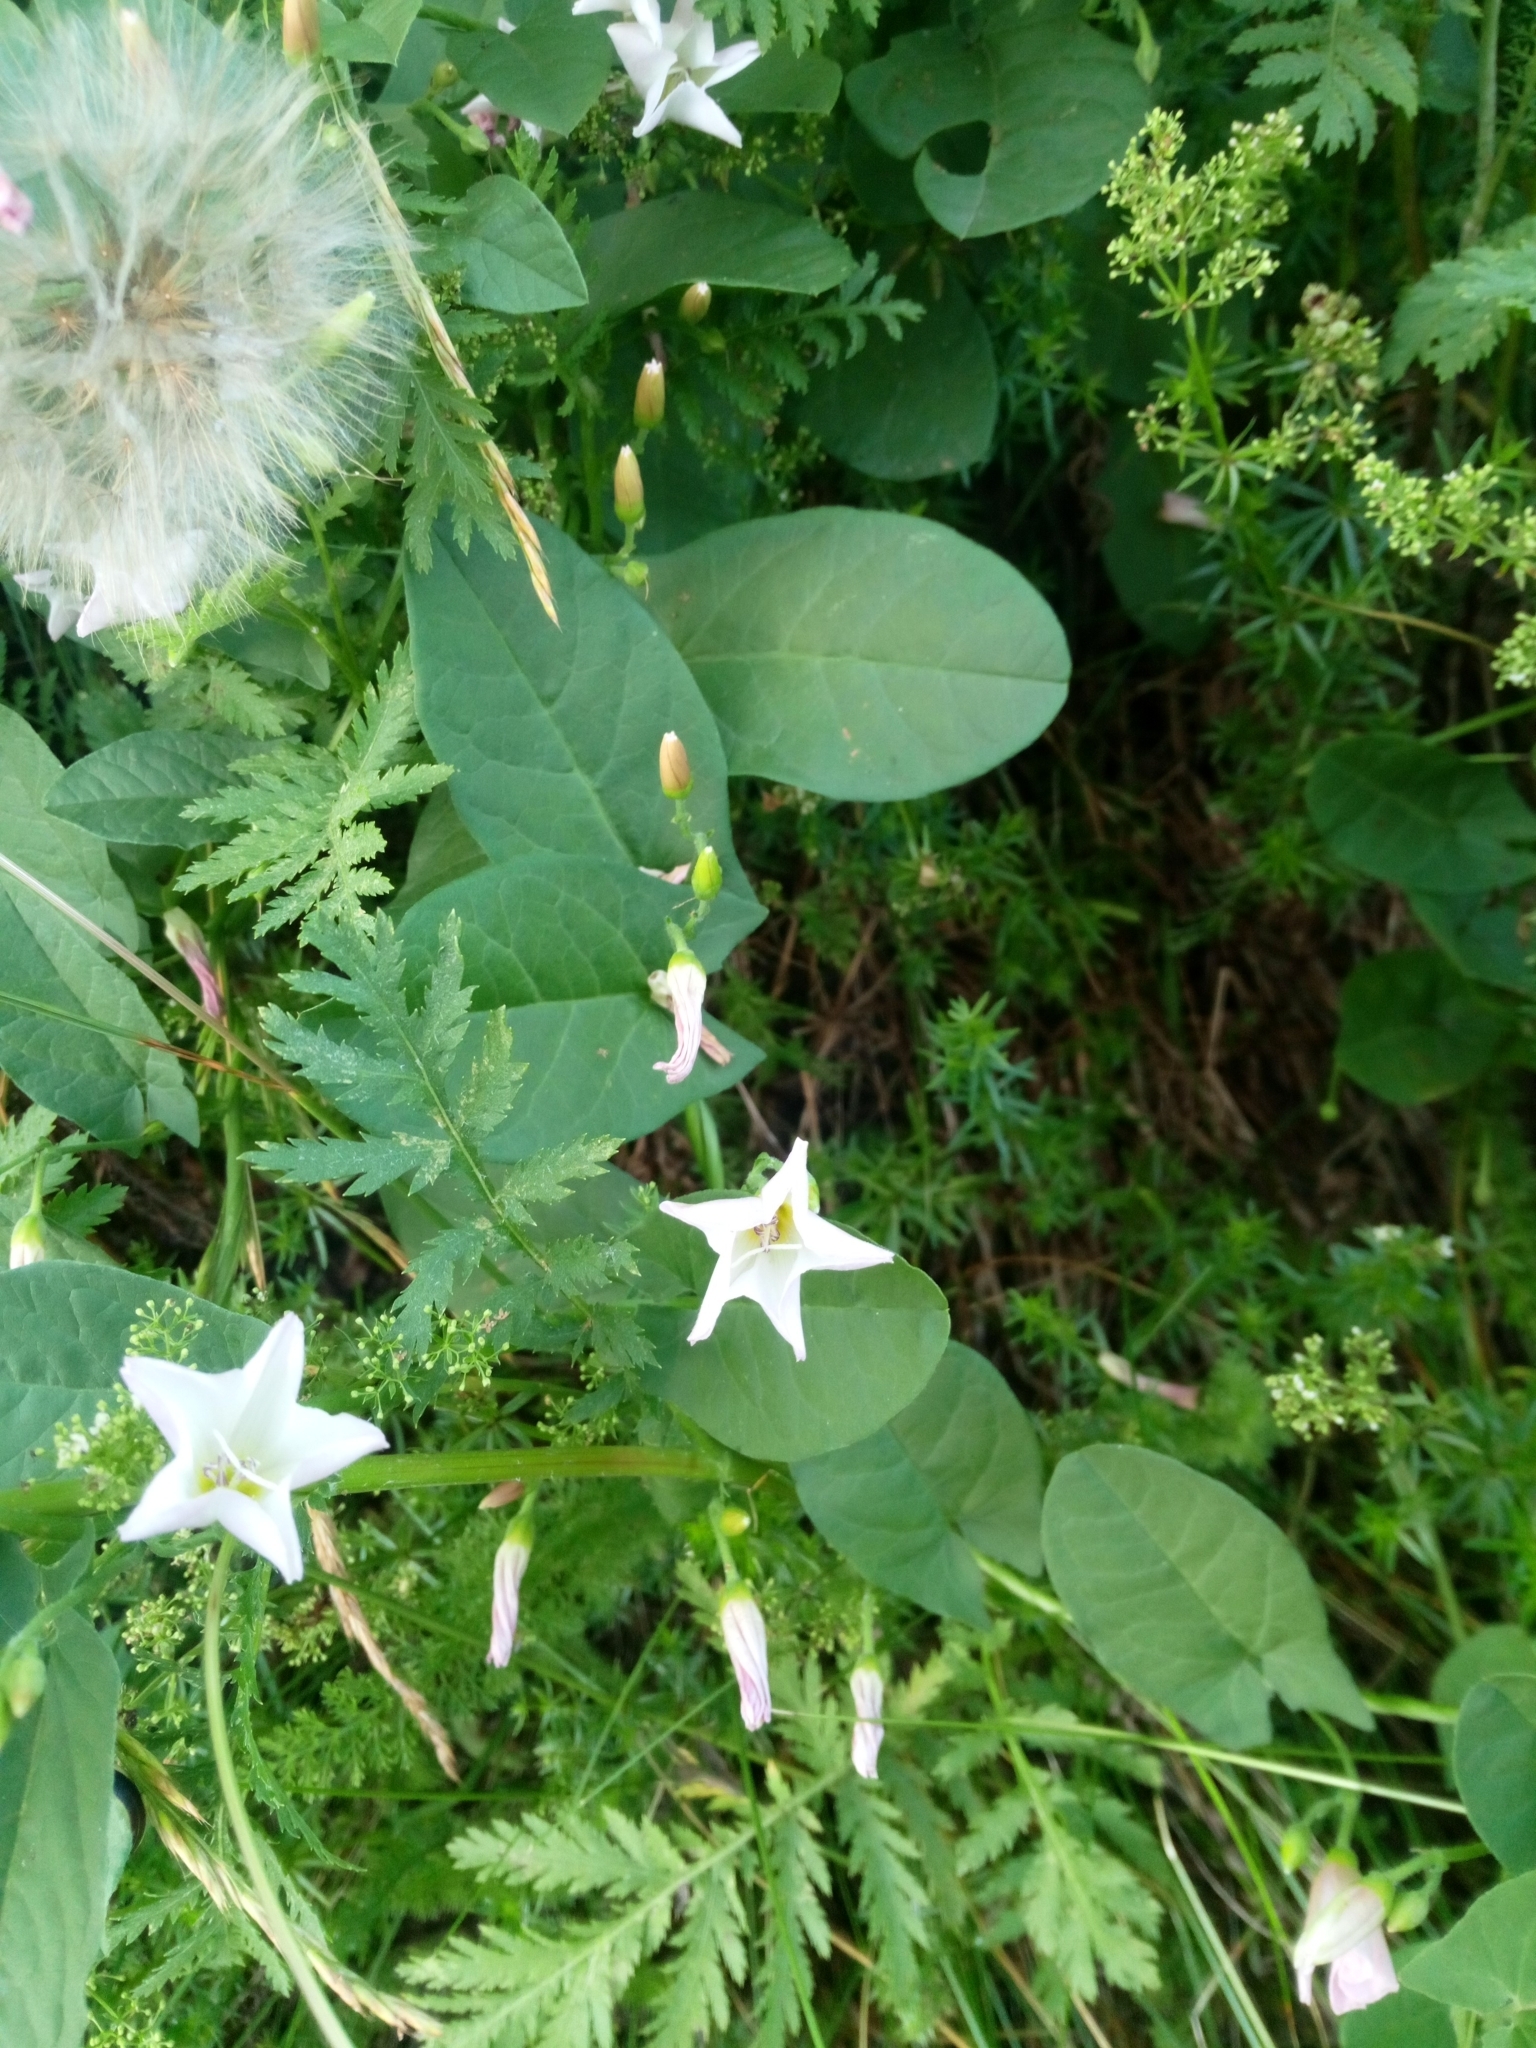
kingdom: Plantae
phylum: Tracheophyta
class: Magnoliopsida
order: Solanales
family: Convolvulaceae
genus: Convolvulus
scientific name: Convolvulus arvensis
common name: Field bindweed
